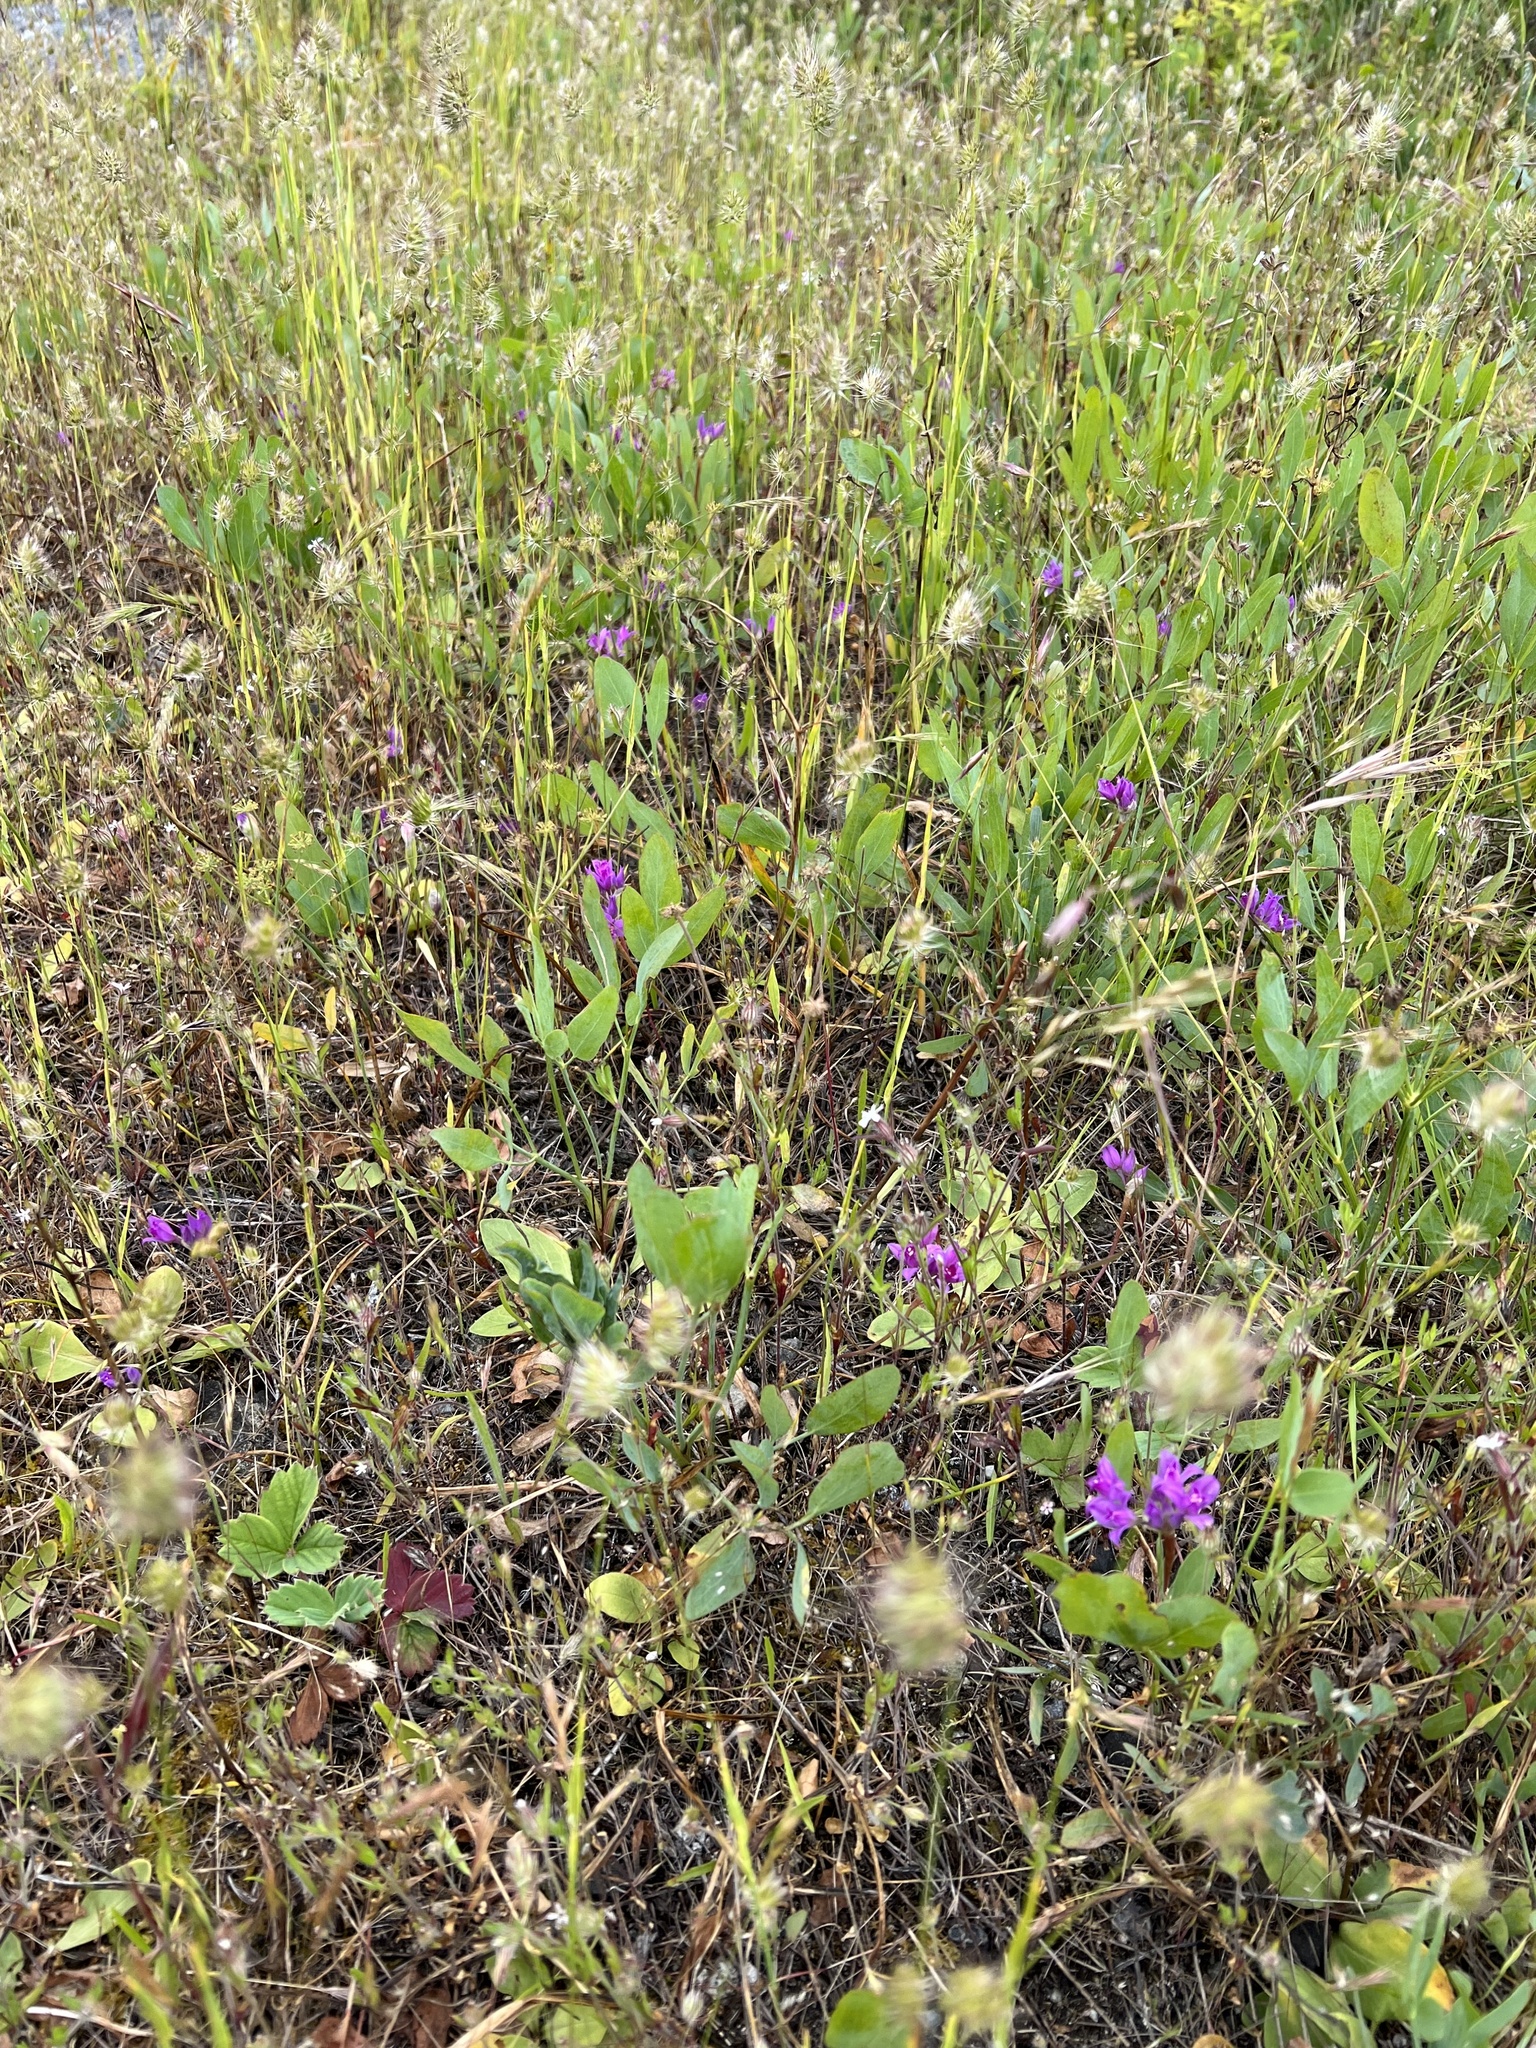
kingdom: Plantae
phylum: Tracheophyta
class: Liliopsida
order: Asparagales
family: Amaryllidaceae
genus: Allium
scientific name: Allium acuminatum
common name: Hooker's onion
